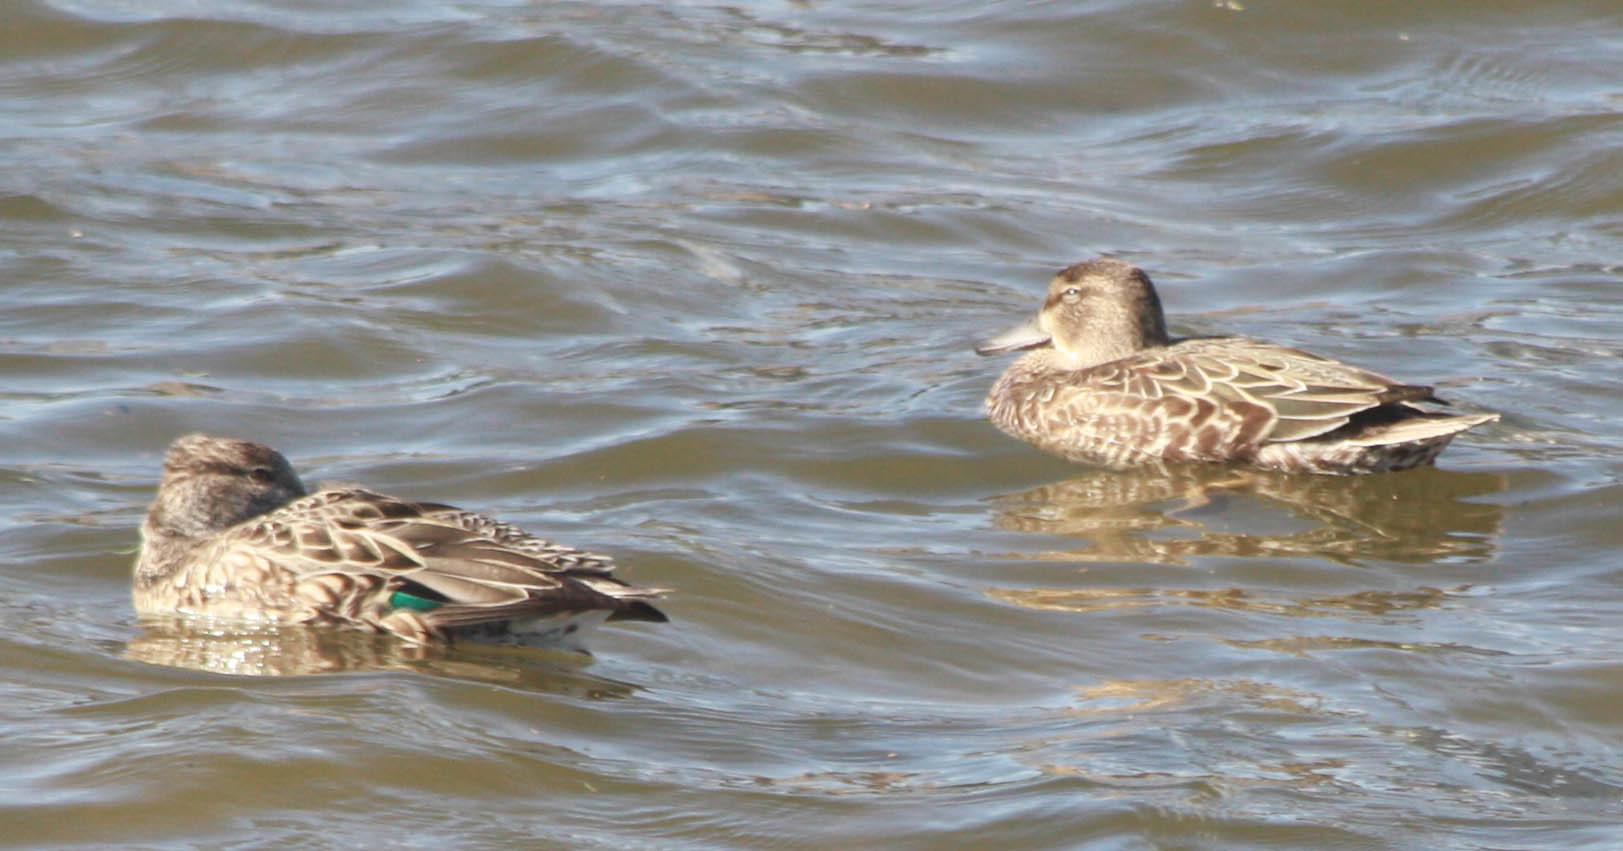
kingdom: Animalia
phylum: Chordata
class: Aves
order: Anseriformes
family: Anatidae
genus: Anas
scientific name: Anas platyrhynchos
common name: Mallard
